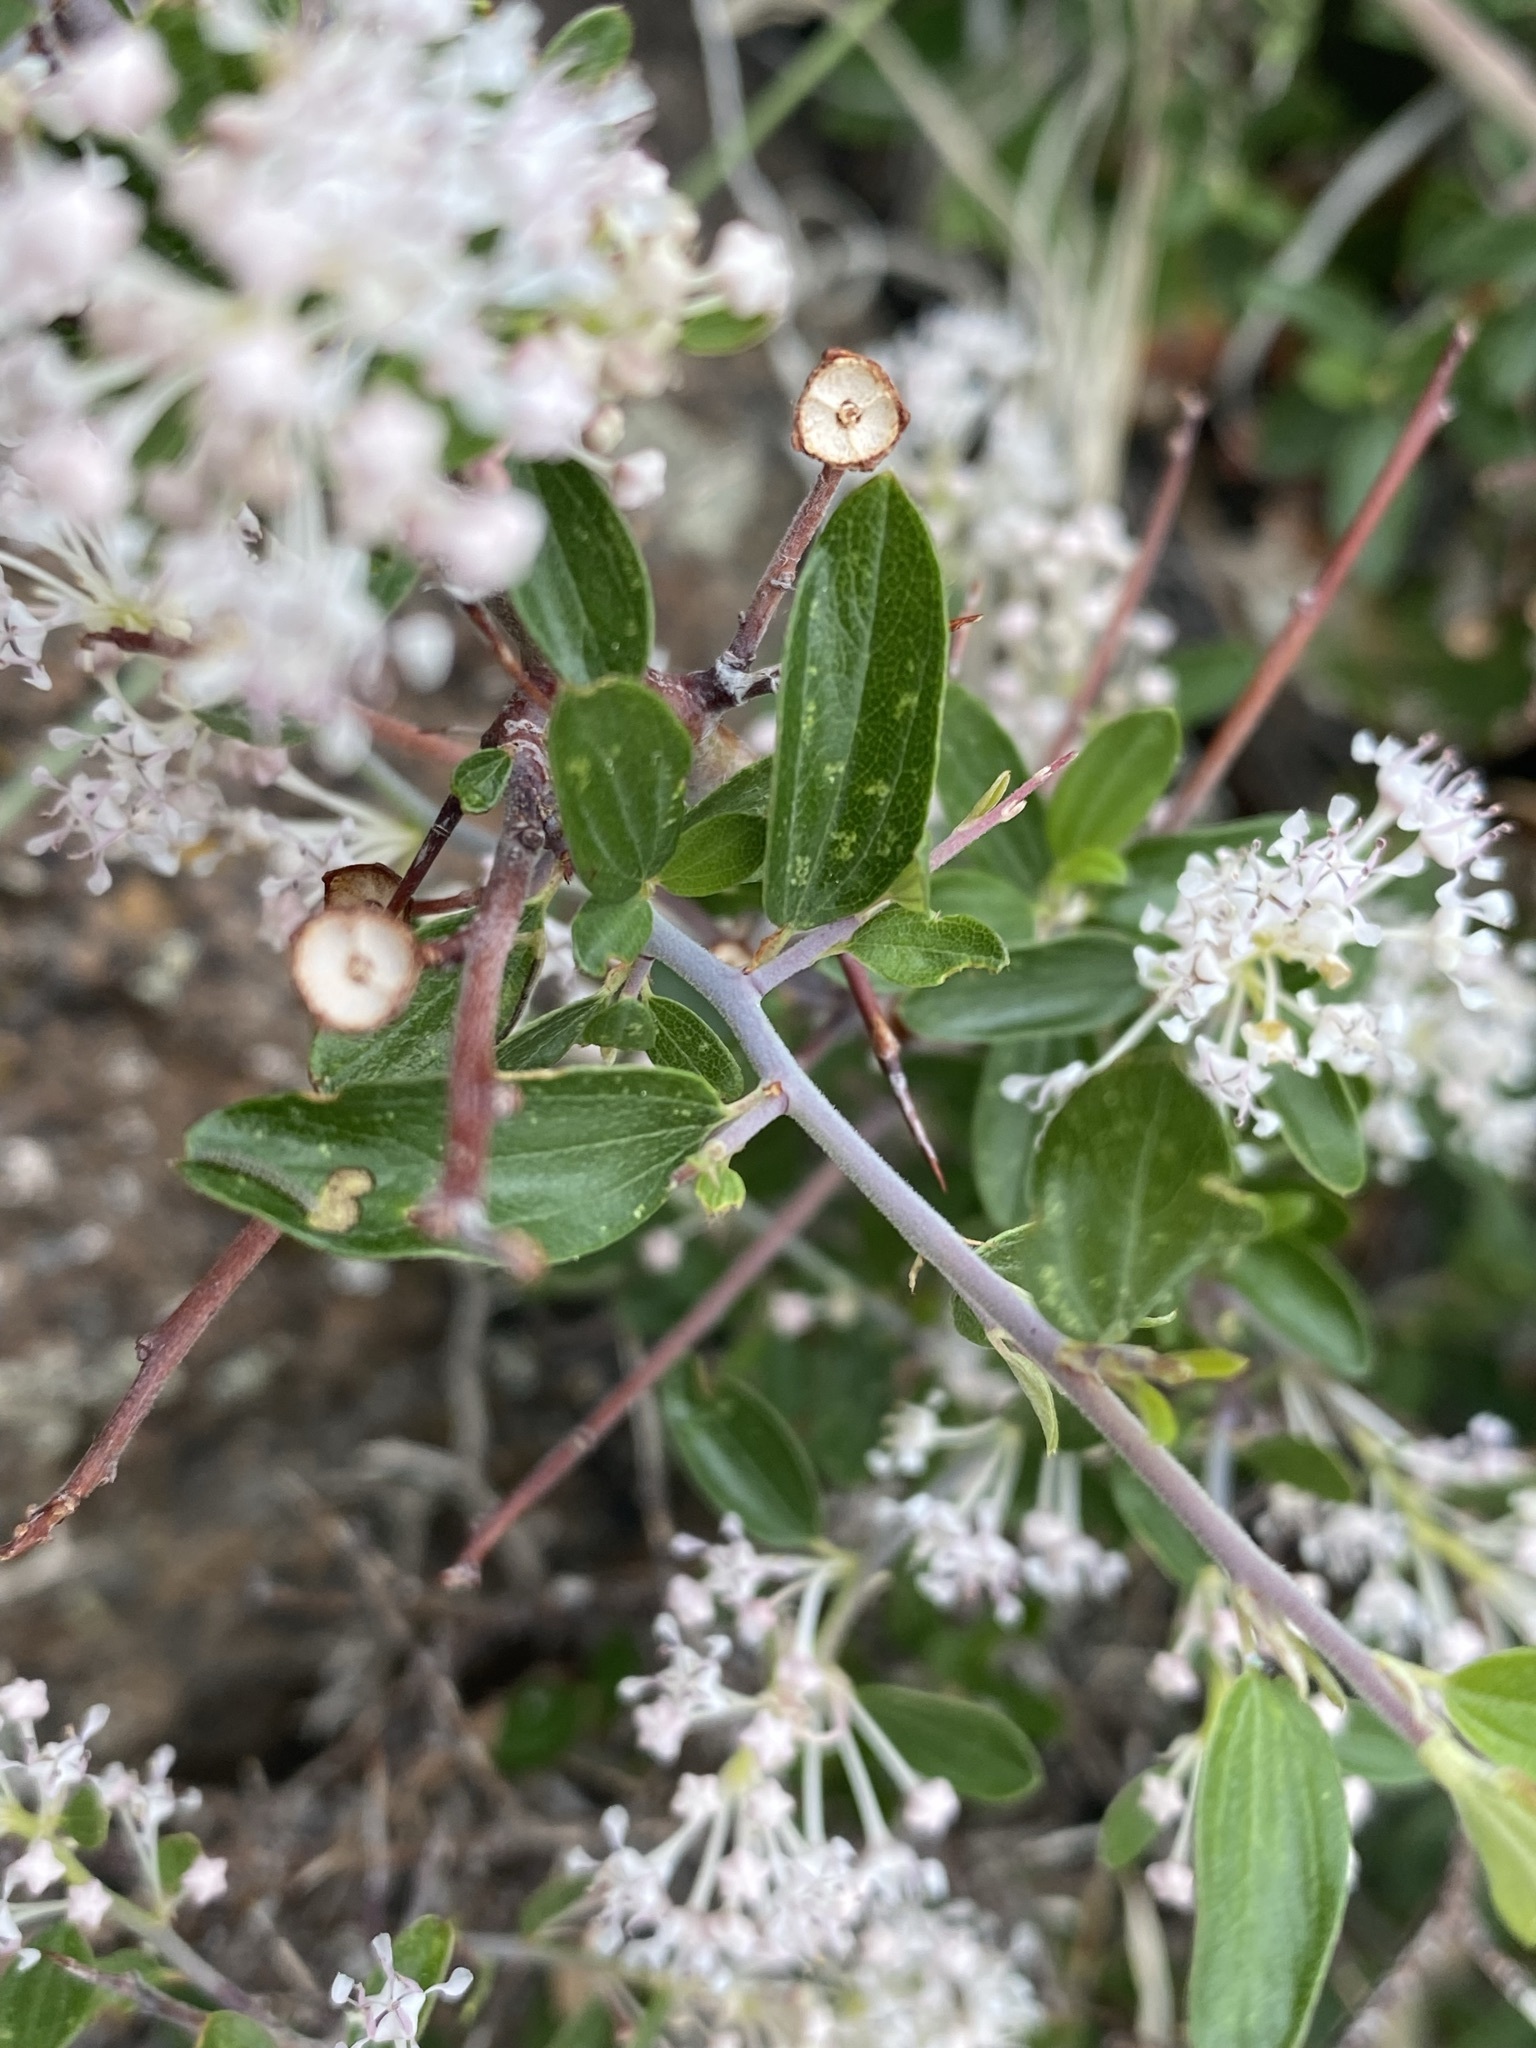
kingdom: Plantae
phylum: Tracheophyta
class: Magnoliopsida
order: Rosales
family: Rhamnaceae
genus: Ceanothus
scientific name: Ceanothus fendleri
